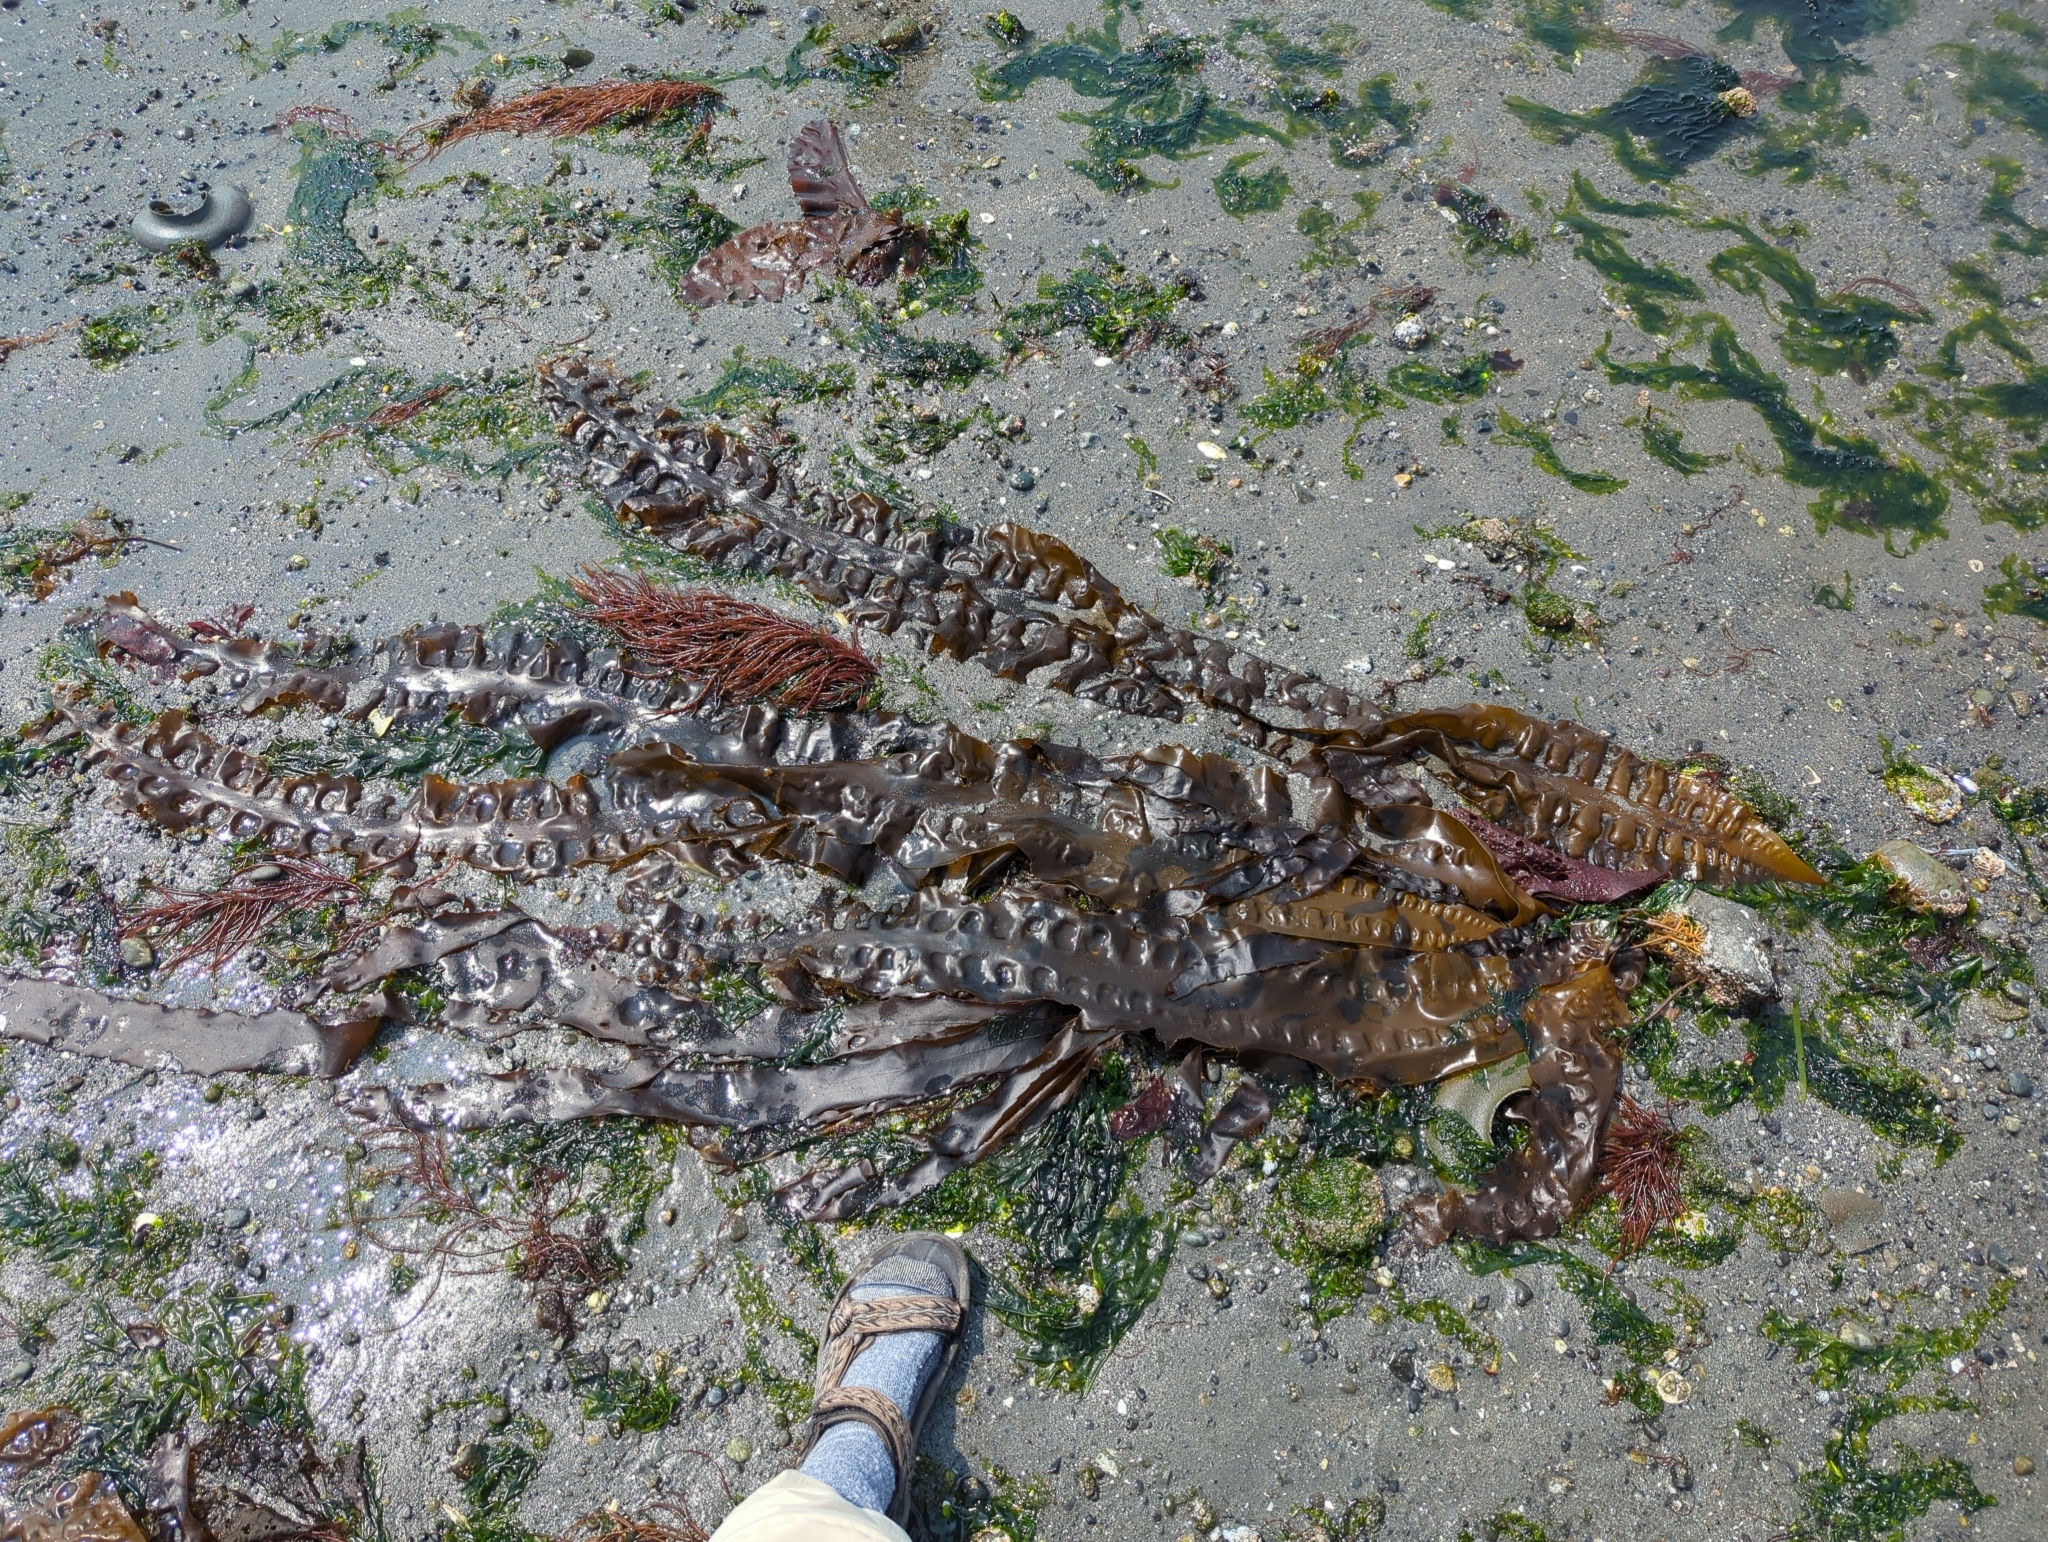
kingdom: Chromista
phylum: Ochrophyta
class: Phaeophyceae
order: Laminariales
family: Laminariaceae
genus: Saccharina
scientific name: Saccharina latissima
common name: Poor man's weather glass
